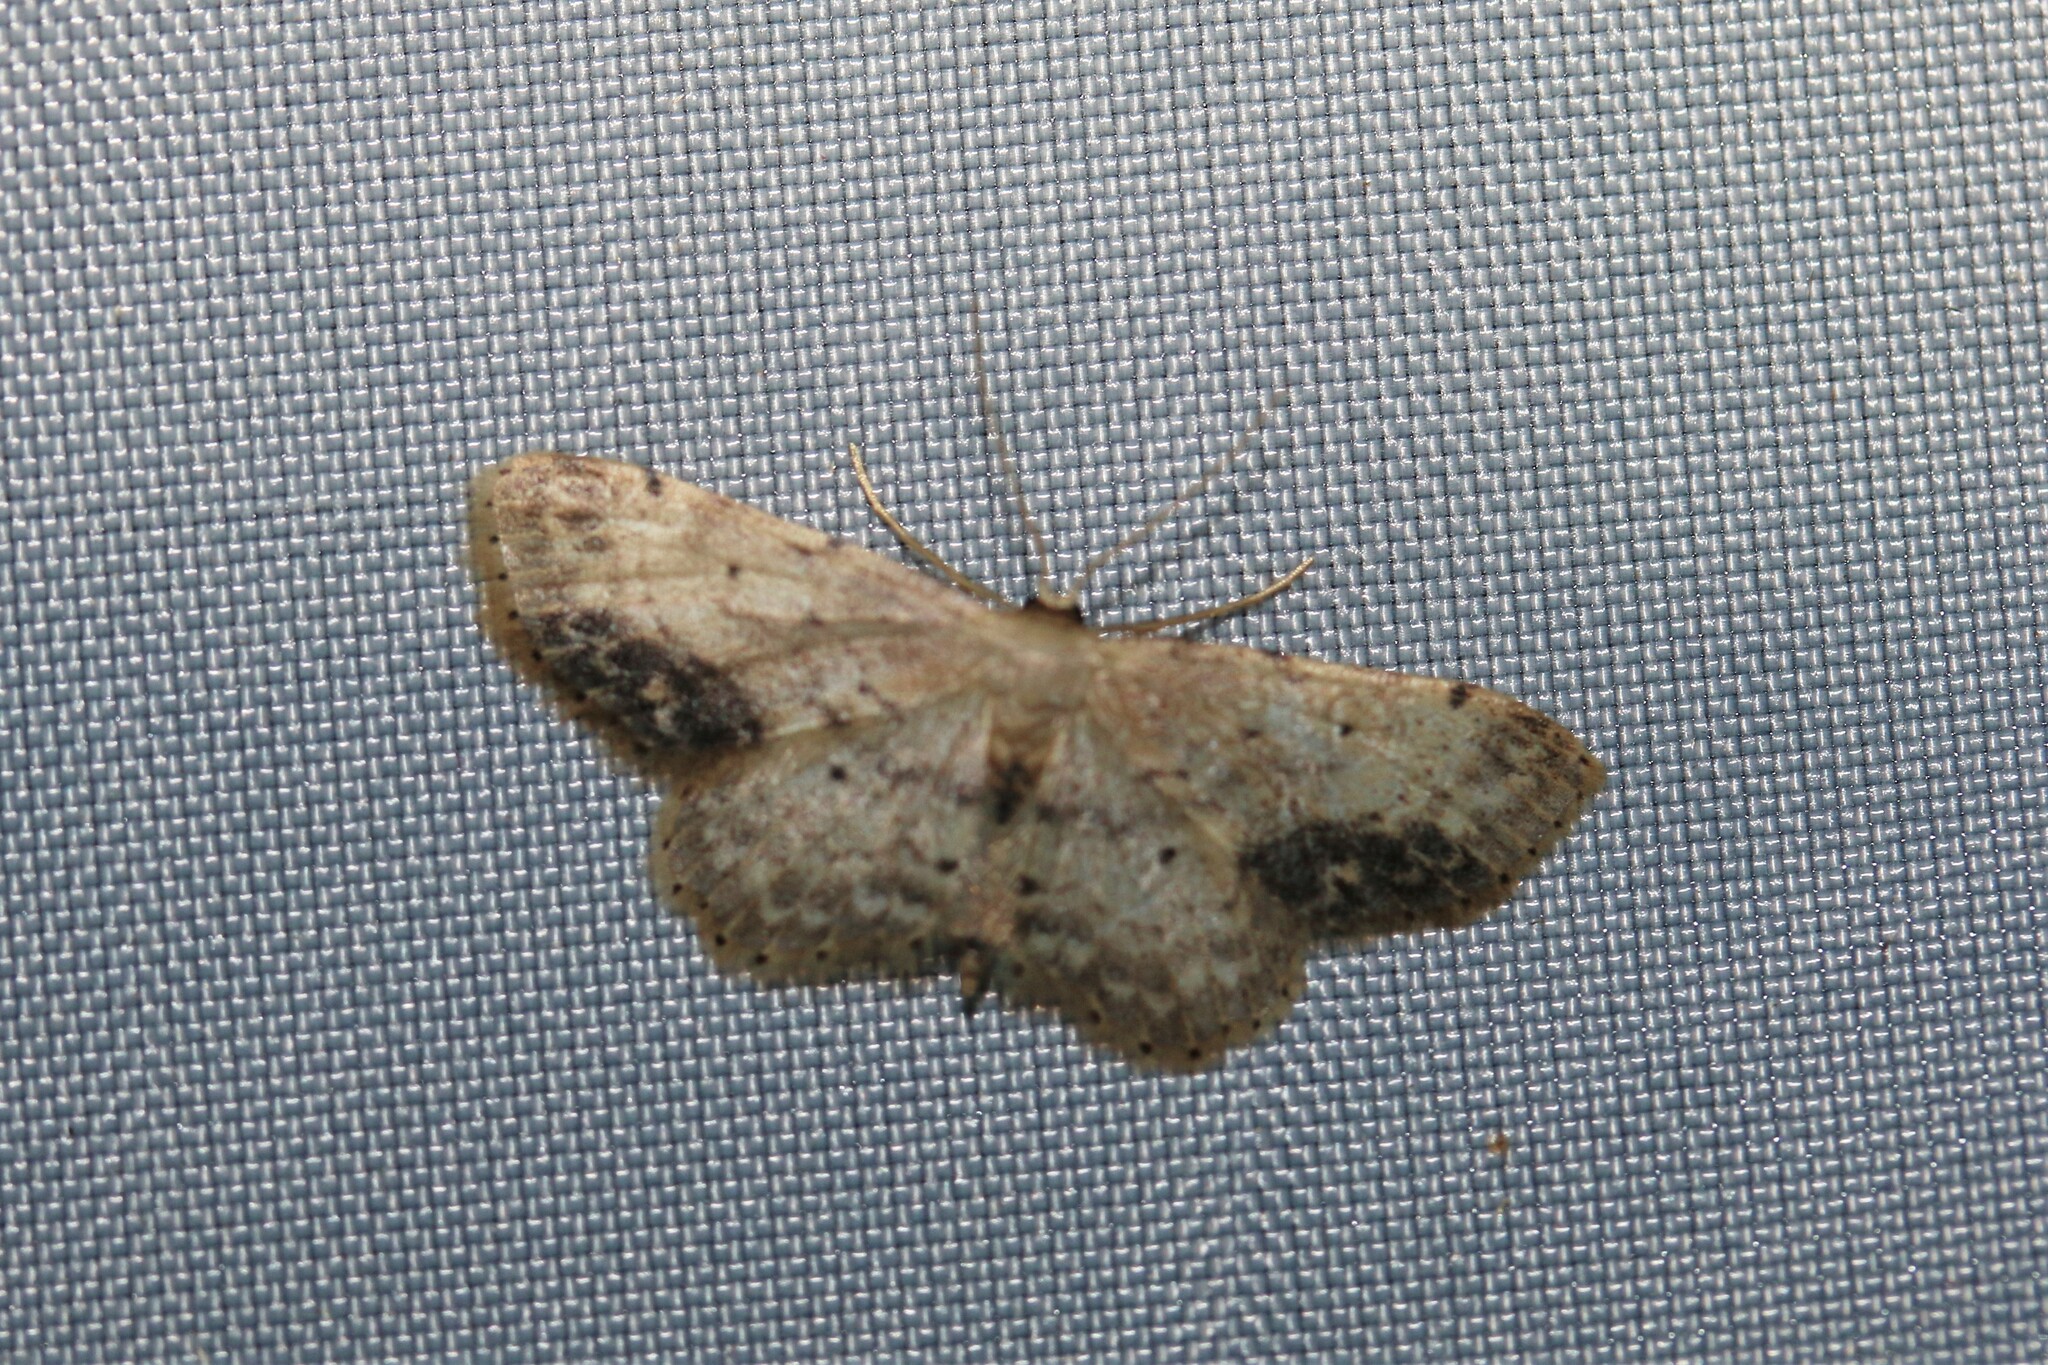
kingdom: Animalia
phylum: Arthropoda
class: Insecta
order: Lepidoptera
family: Geometridae
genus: Idaea
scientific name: Idaea dimidiata
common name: Single-dotted wave
